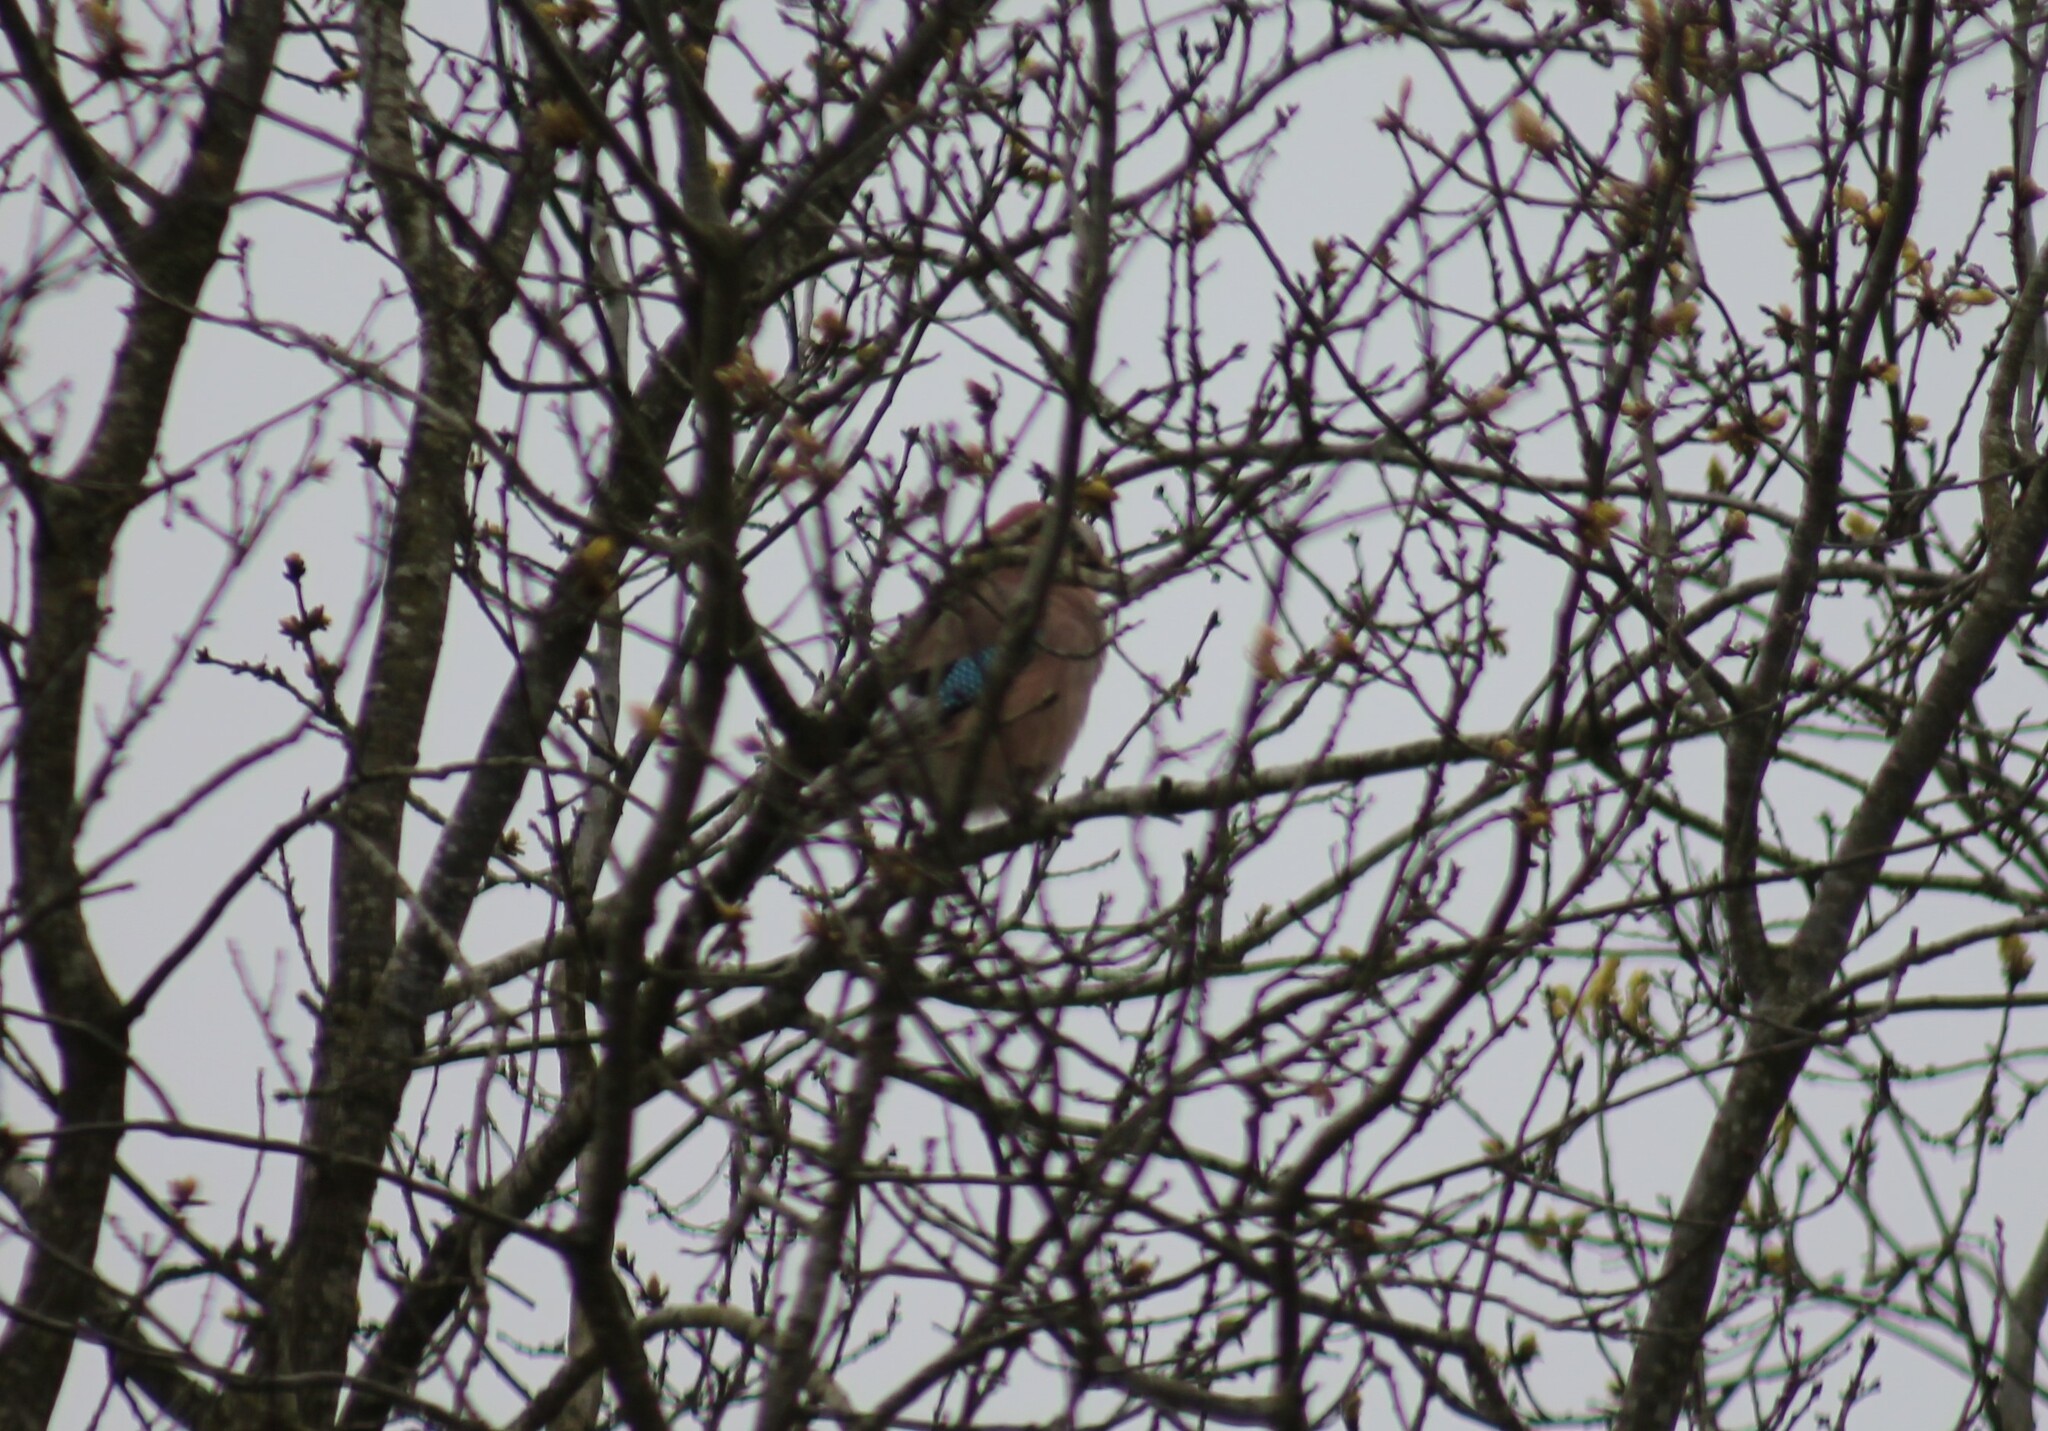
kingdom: Animalia
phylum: Chordata
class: Aves
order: Passeriformes
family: Corvidae
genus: Garrulus
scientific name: Garrulus glandarius
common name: Eurasian jay
